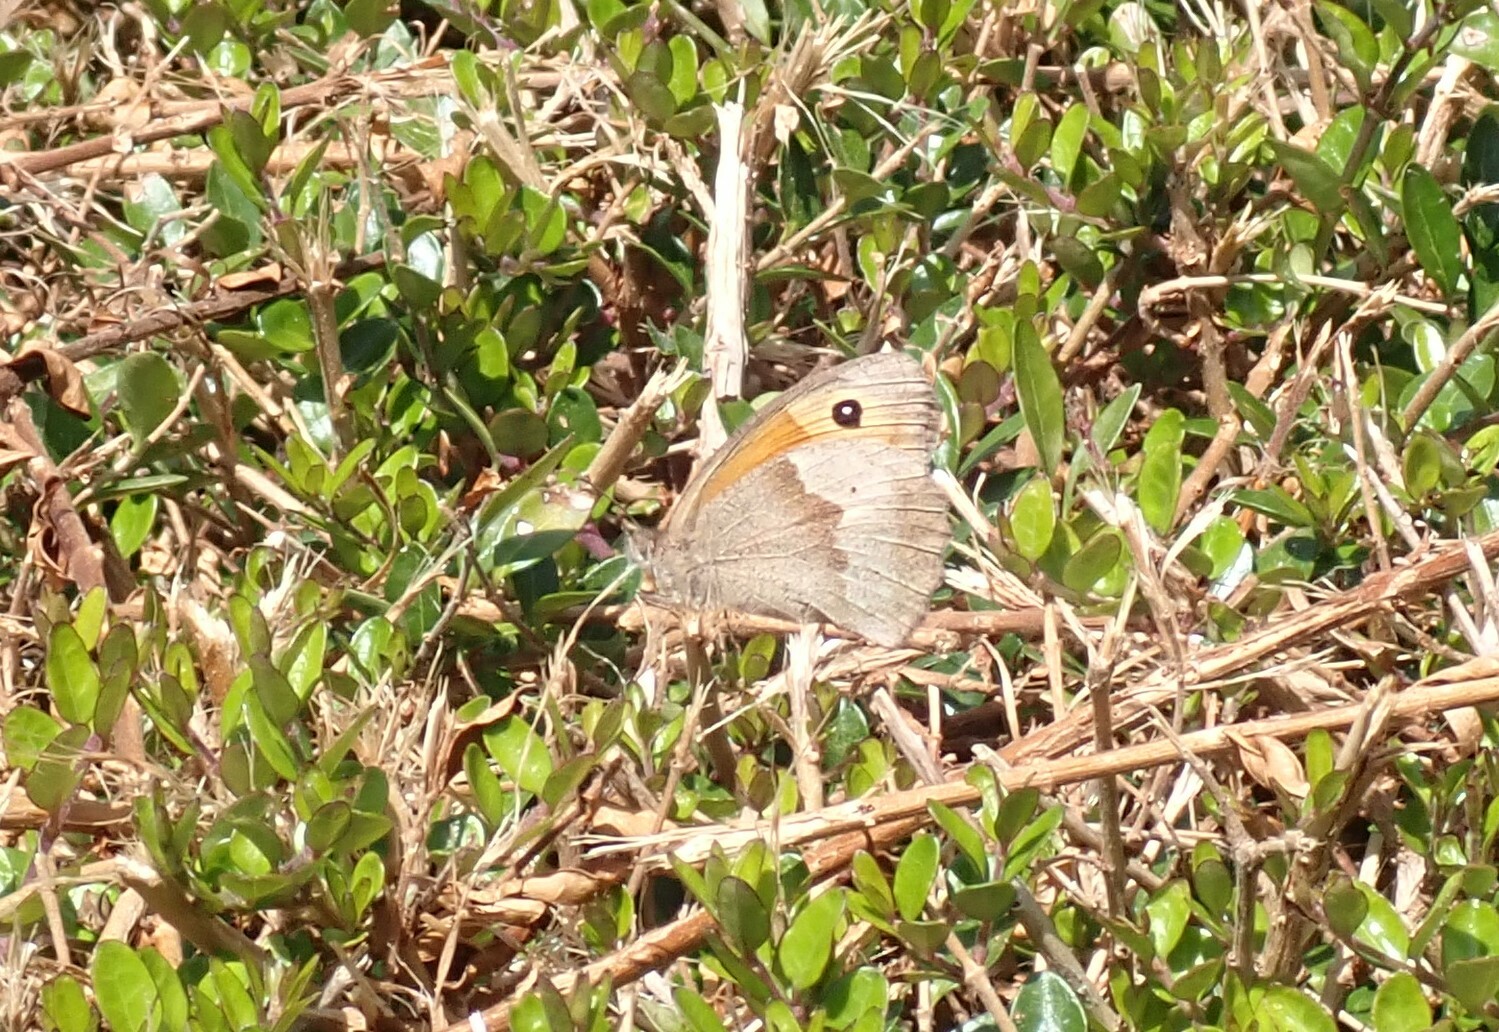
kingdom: Animalia
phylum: Arthropoda
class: Insecta
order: Lepidoptera
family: Nymphalidae
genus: Maniola
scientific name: Maniola jurtina
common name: Meadow brown
